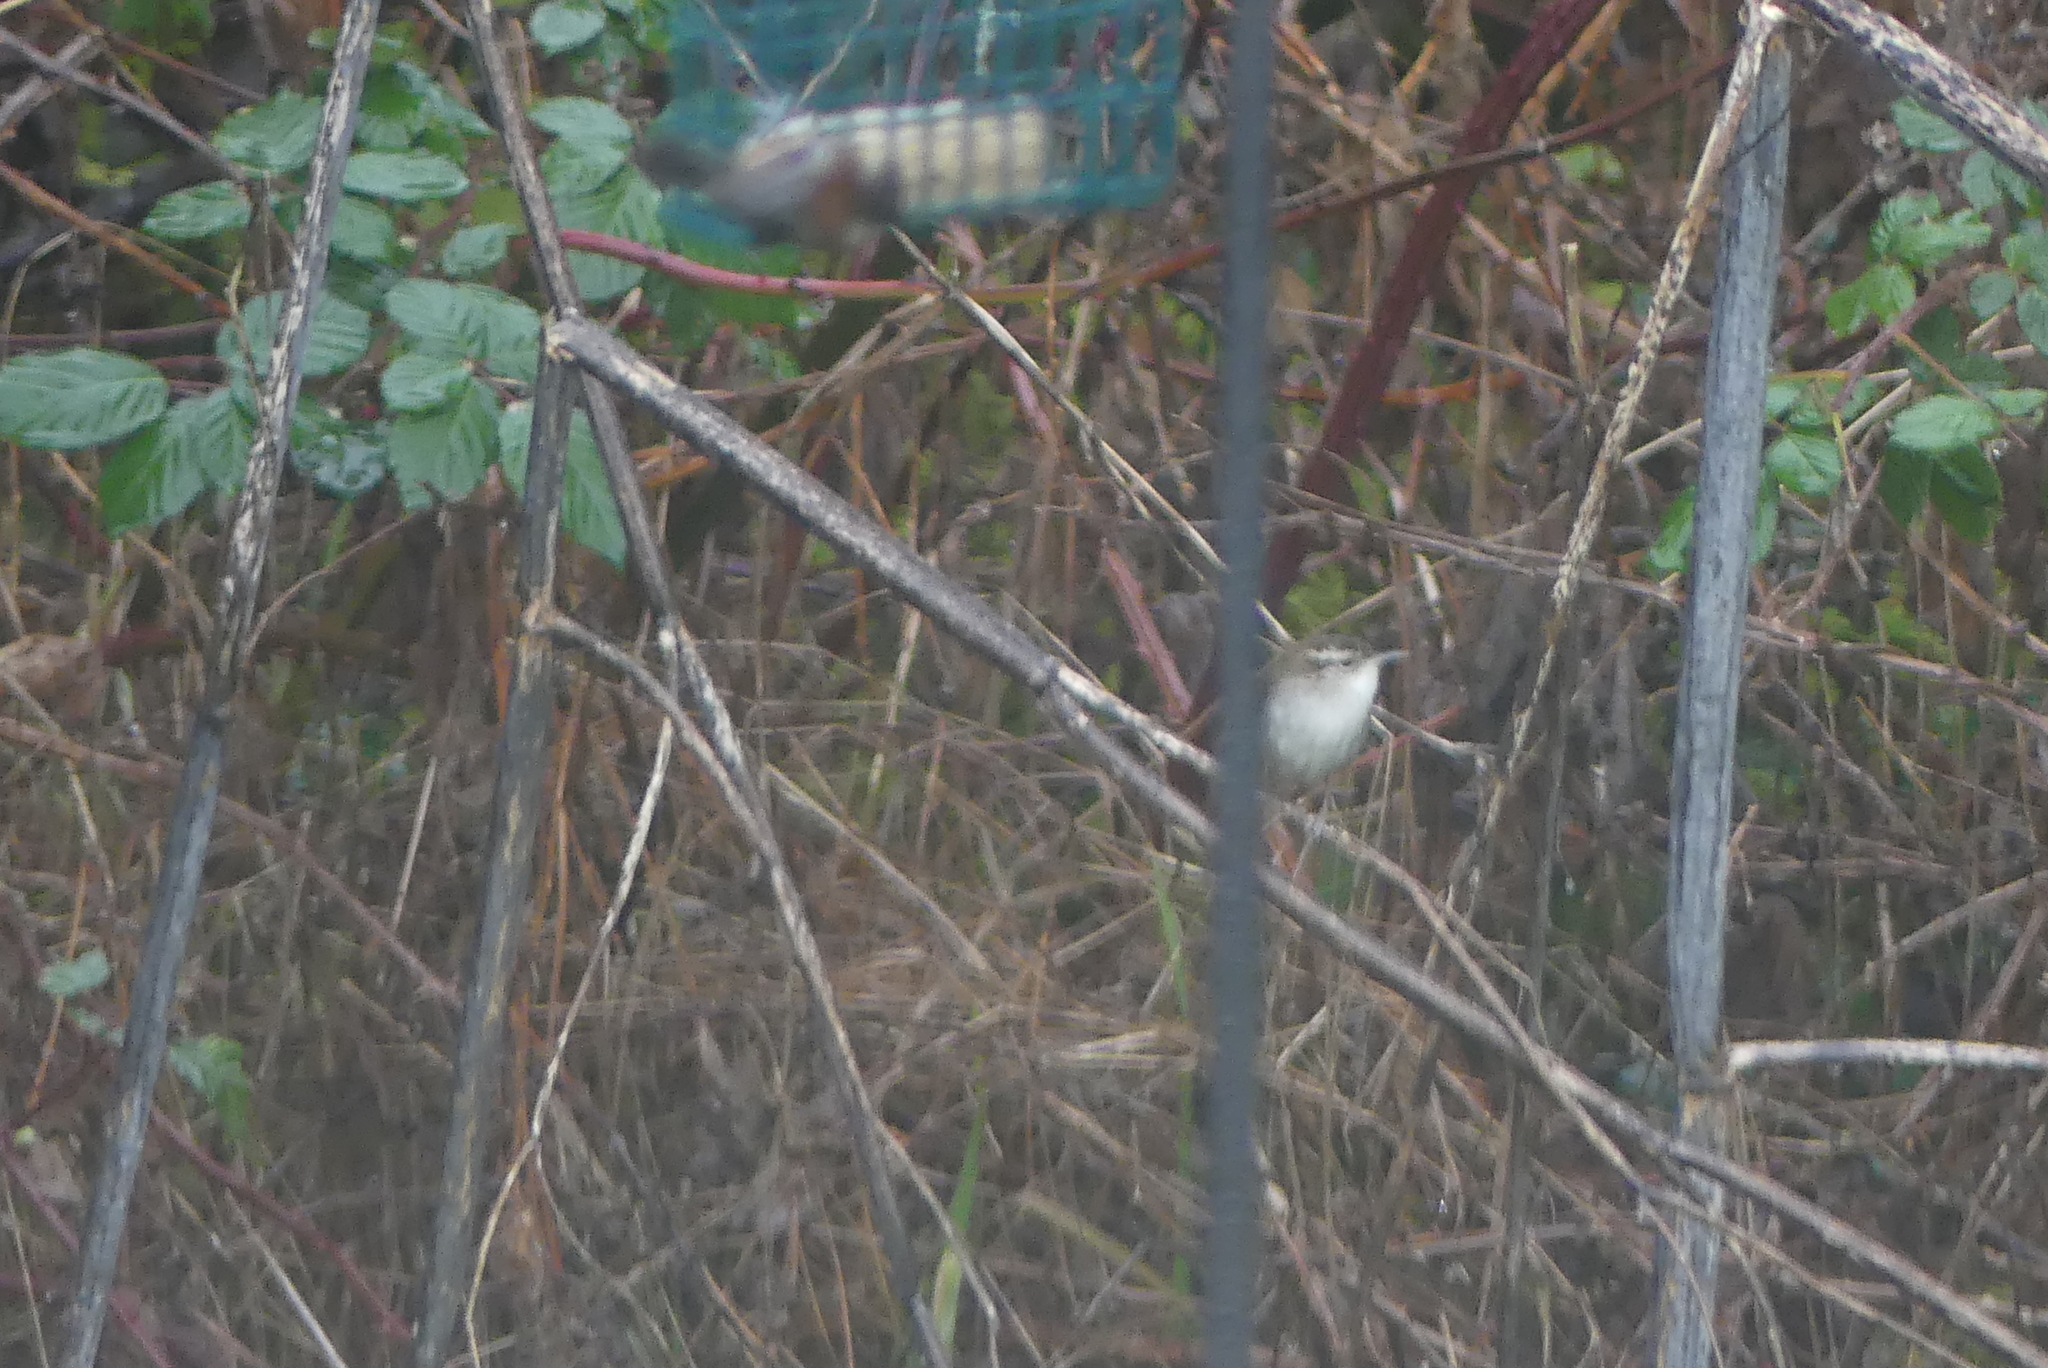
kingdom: Animalia
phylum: Chordata
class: Aves
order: Passeriformes
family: Troglodytidae
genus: Thryomanes
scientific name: Thryomanes bewickii
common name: Bewick's wren
